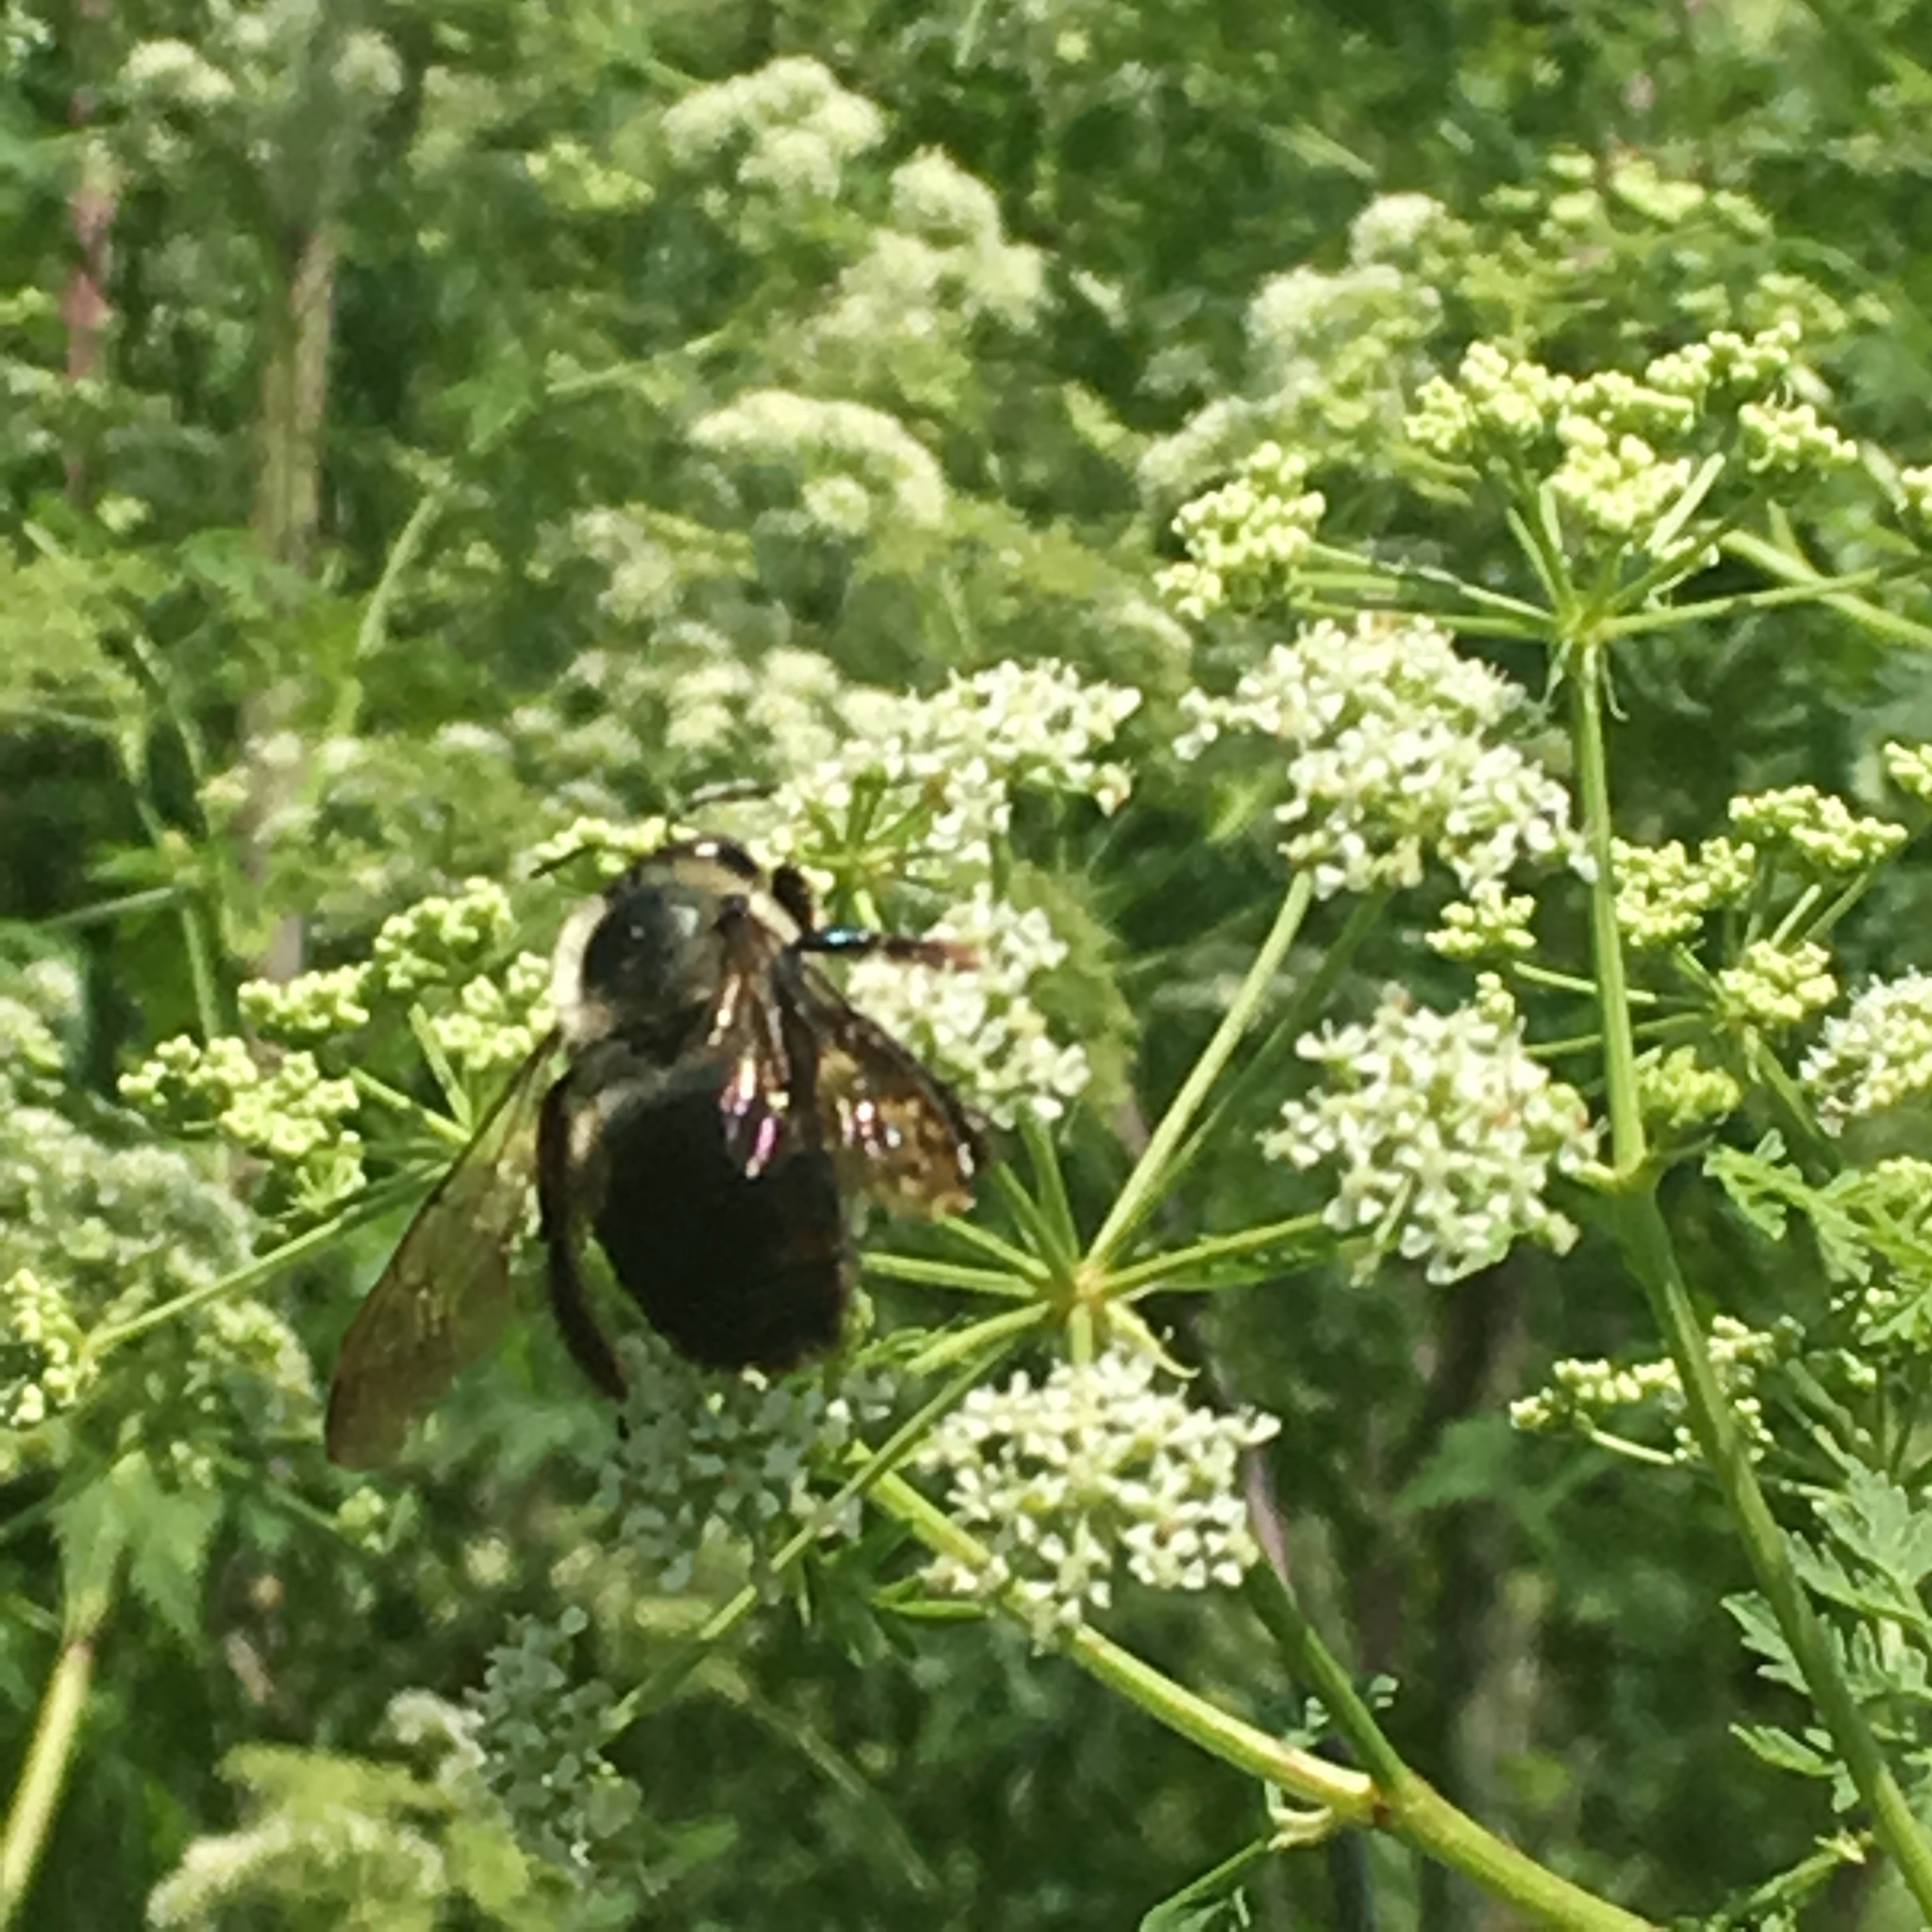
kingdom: Animalia
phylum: Arthropoda
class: Insecta
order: Hymenoptera
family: Apidae
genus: Xylocopa
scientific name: Xylocopa virginica
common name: Carpenter bee
